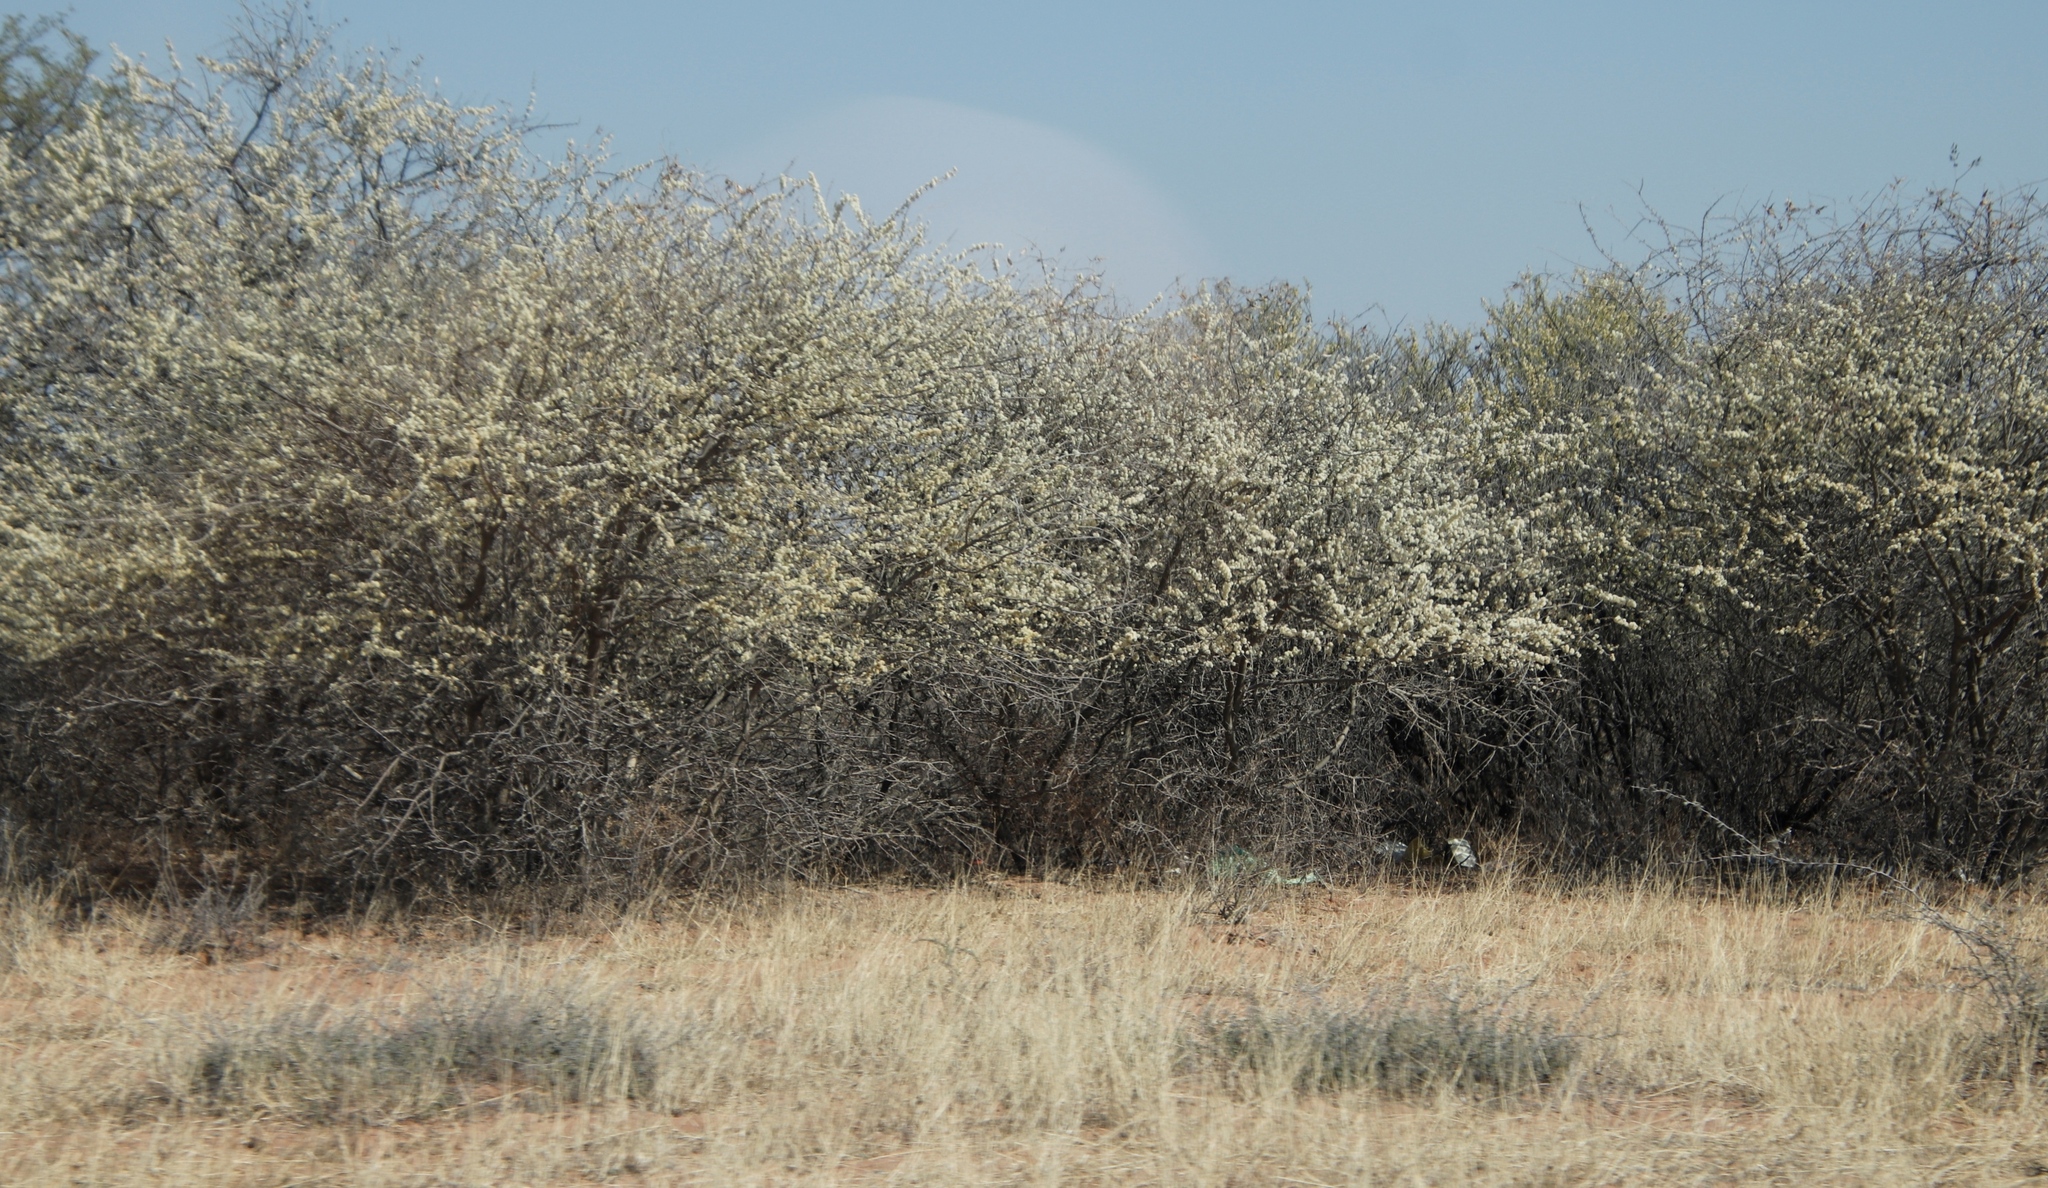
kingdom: Plantae
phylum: Tracheophyta
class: Magnoliopsida
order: Fabales
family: Fabaceae
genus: Senegalia
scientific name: Senegalia mellifera
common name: Hookthorn
